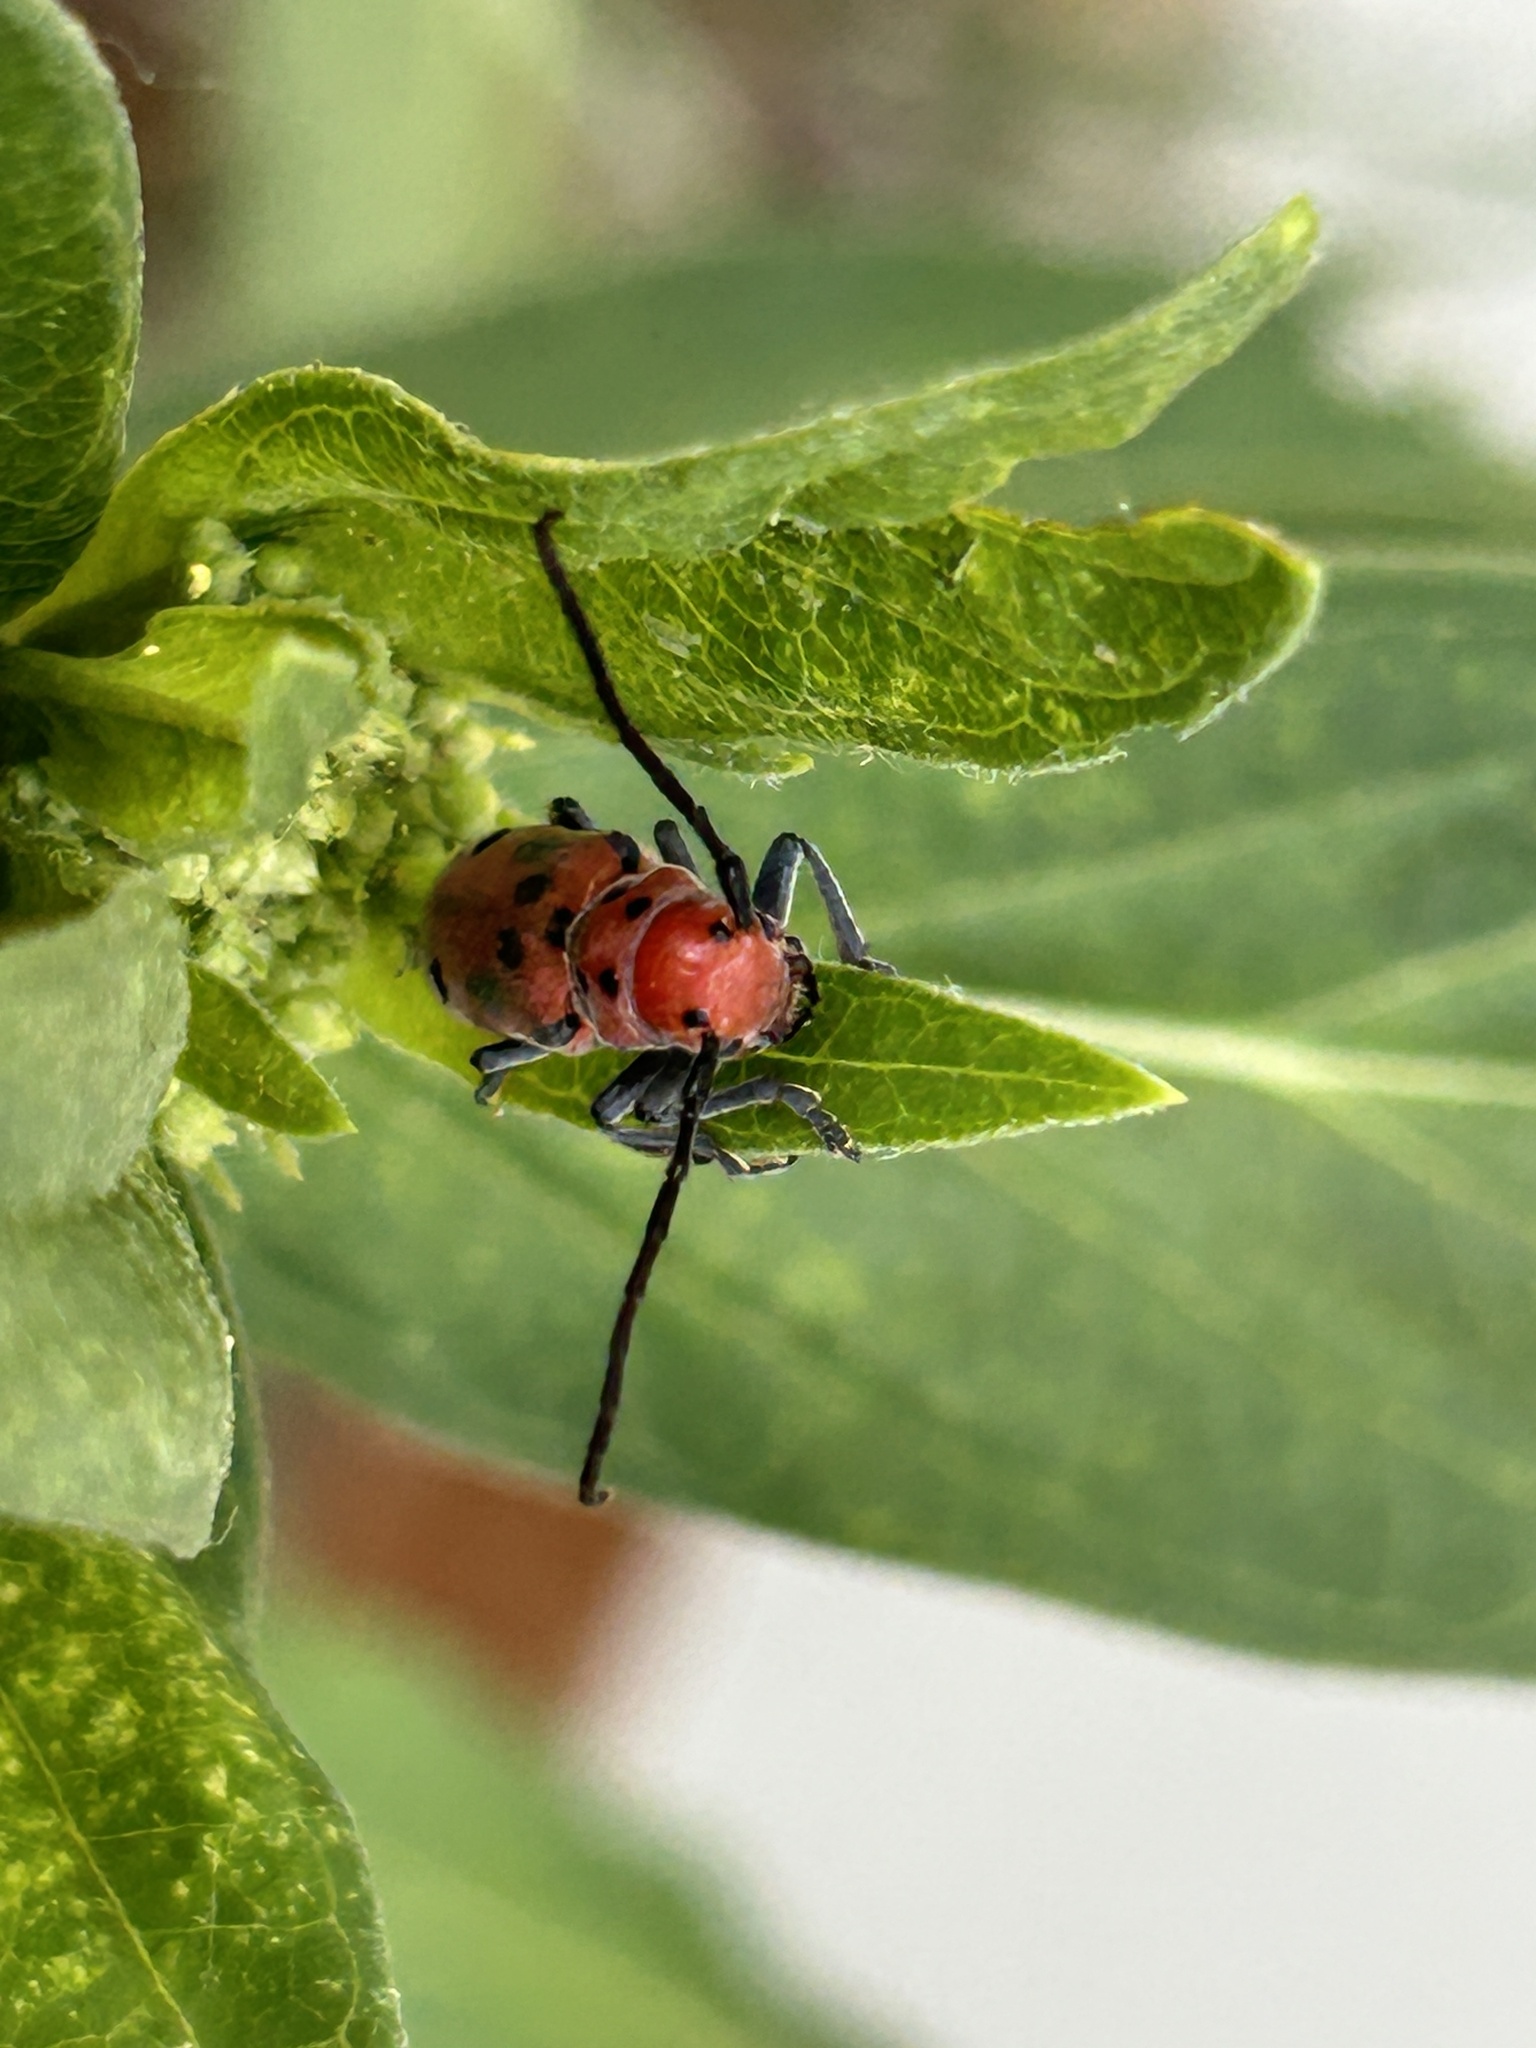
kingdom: Animalia
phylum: Arthropoda
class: Insecta
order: Coleoptera
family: Cerambycidae
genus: Tetraopes
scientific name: Tetraopes tetrophthalmus
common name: Red milkweed beetle
